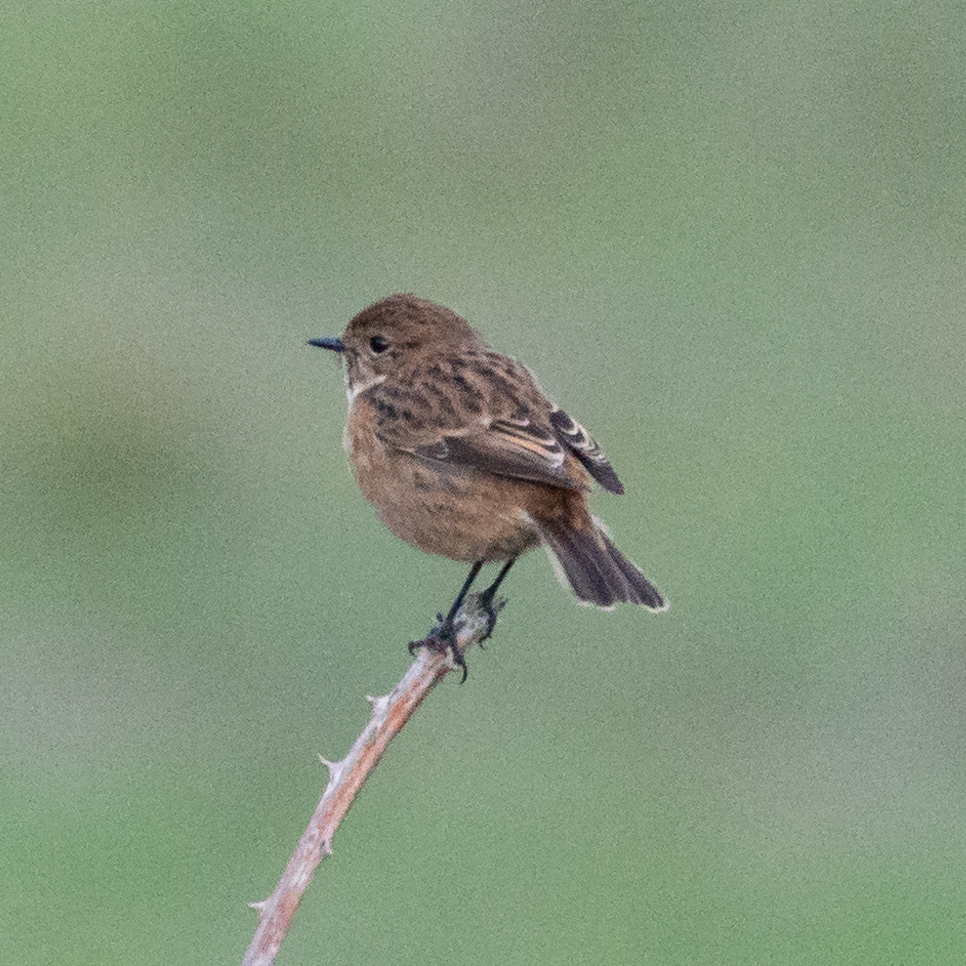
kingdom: Animalia
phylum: Chordata
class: Aves
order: Passeriformes
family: Muscicapidae
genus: Saxicola
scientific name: Saxicola rubicola
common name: European stonechat
